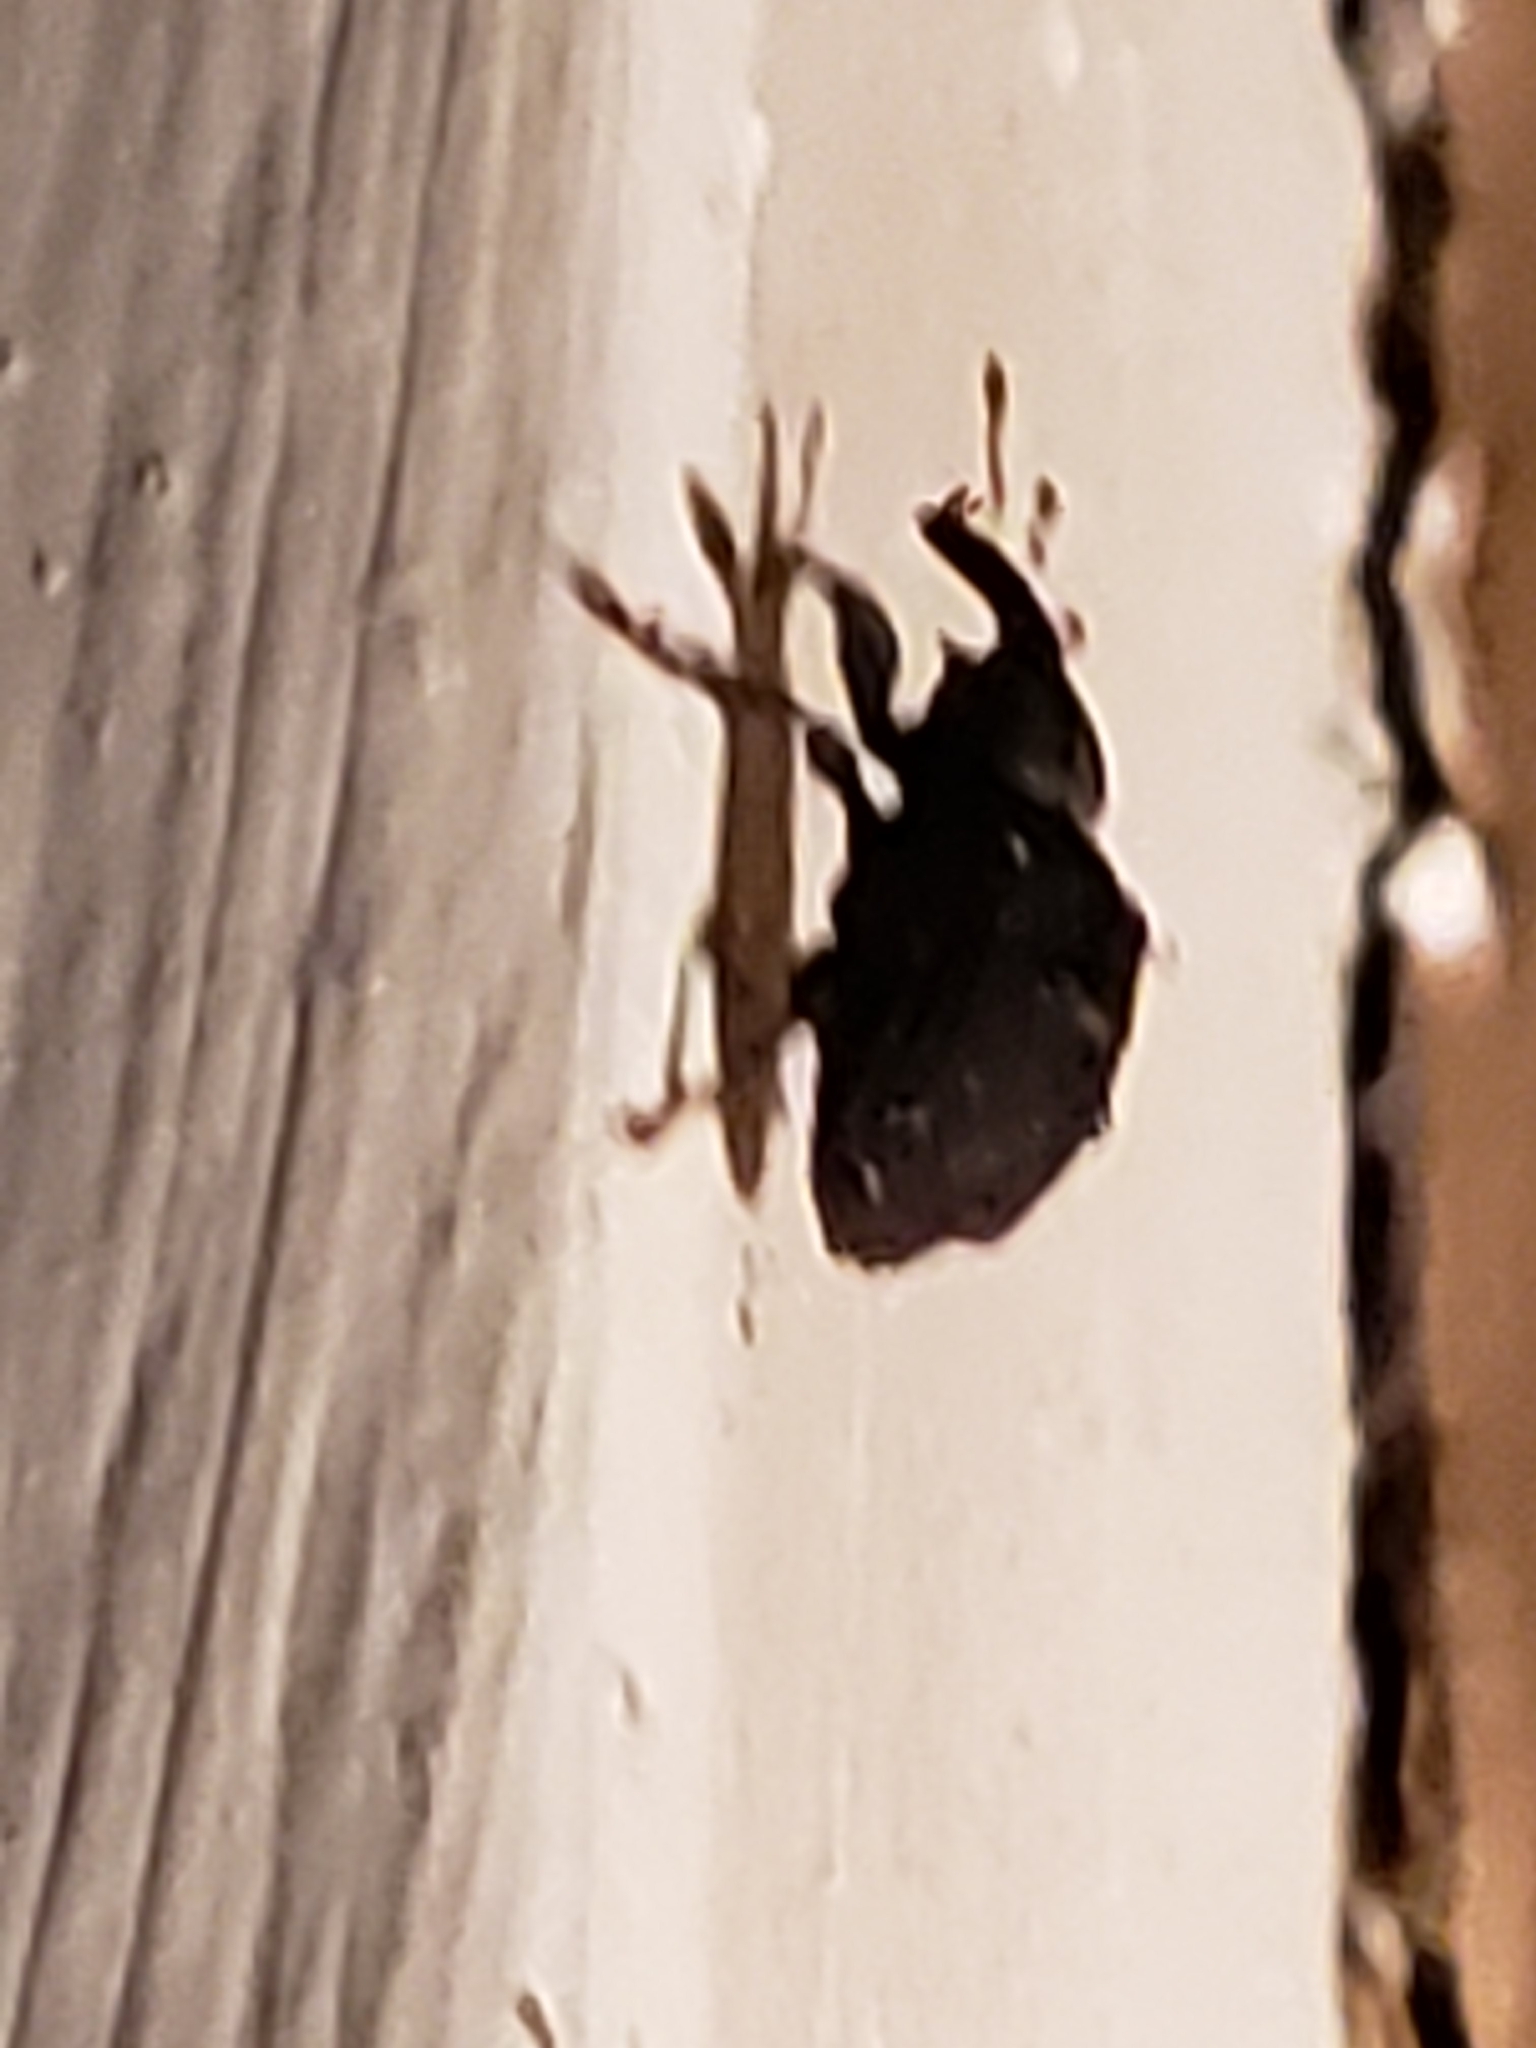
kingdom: Animalia
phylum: Arthropoda
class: Insecta
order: Coleoptera
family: Curculionidae
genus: Odontopus
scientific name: Odontopus calceatus
